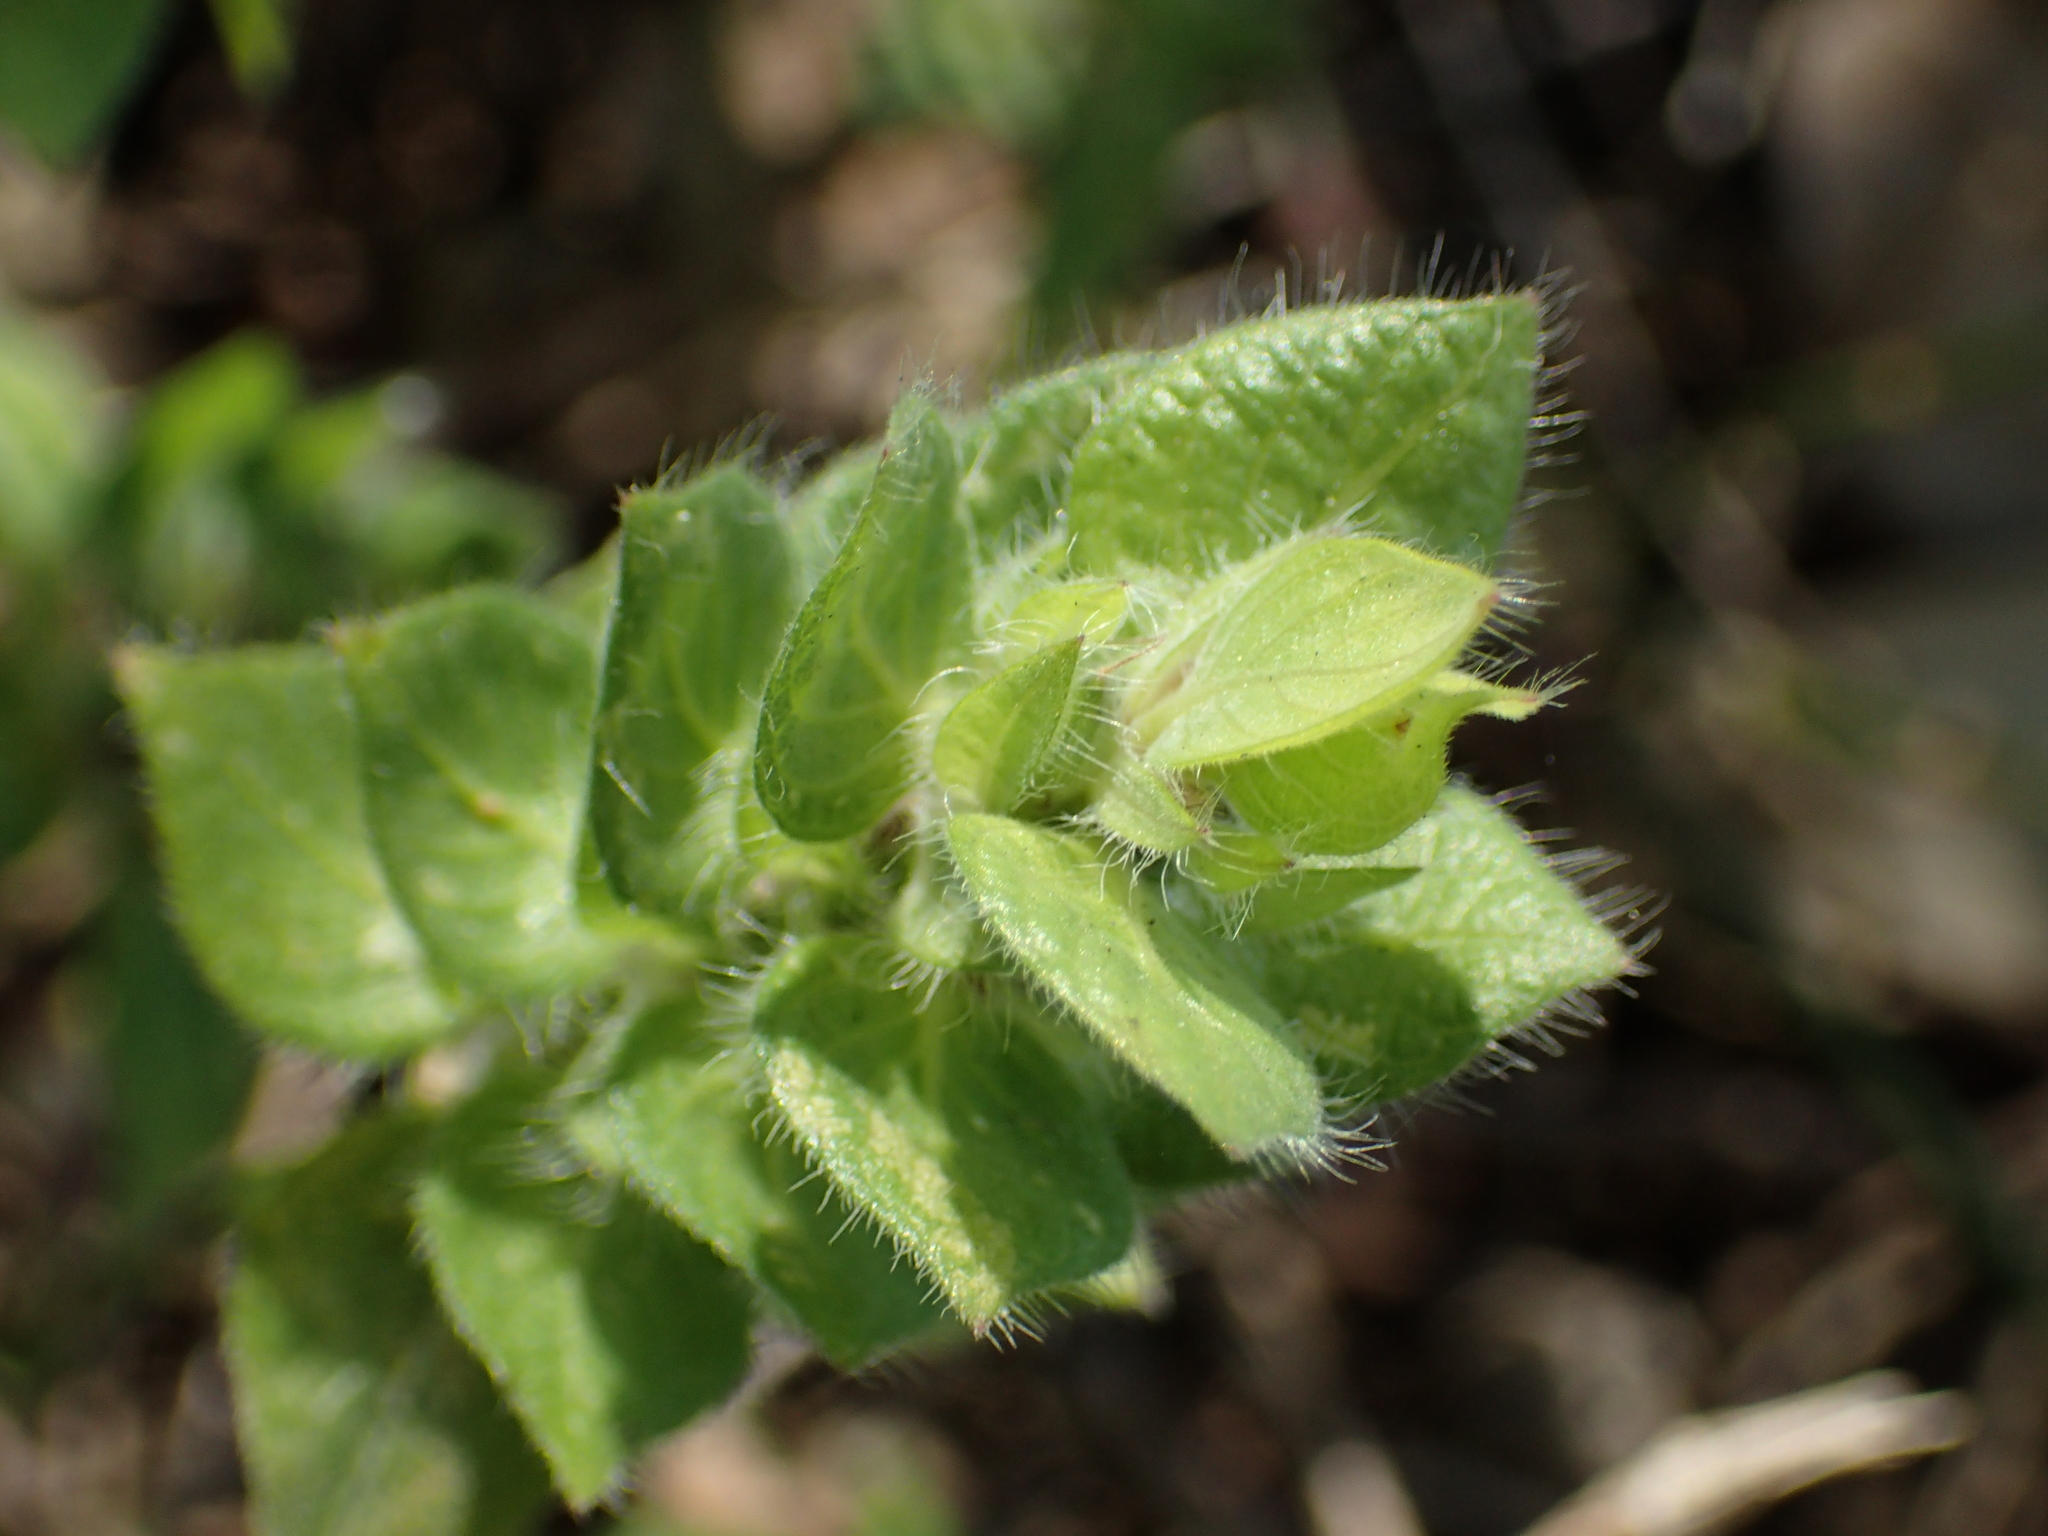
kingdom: Plantae
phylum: Tracheophyta
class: Magnoliopsida
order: Lamiales
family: Acanthaceae
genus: Ruellia
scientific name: Ruellia blechum
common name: Browne's blechum
